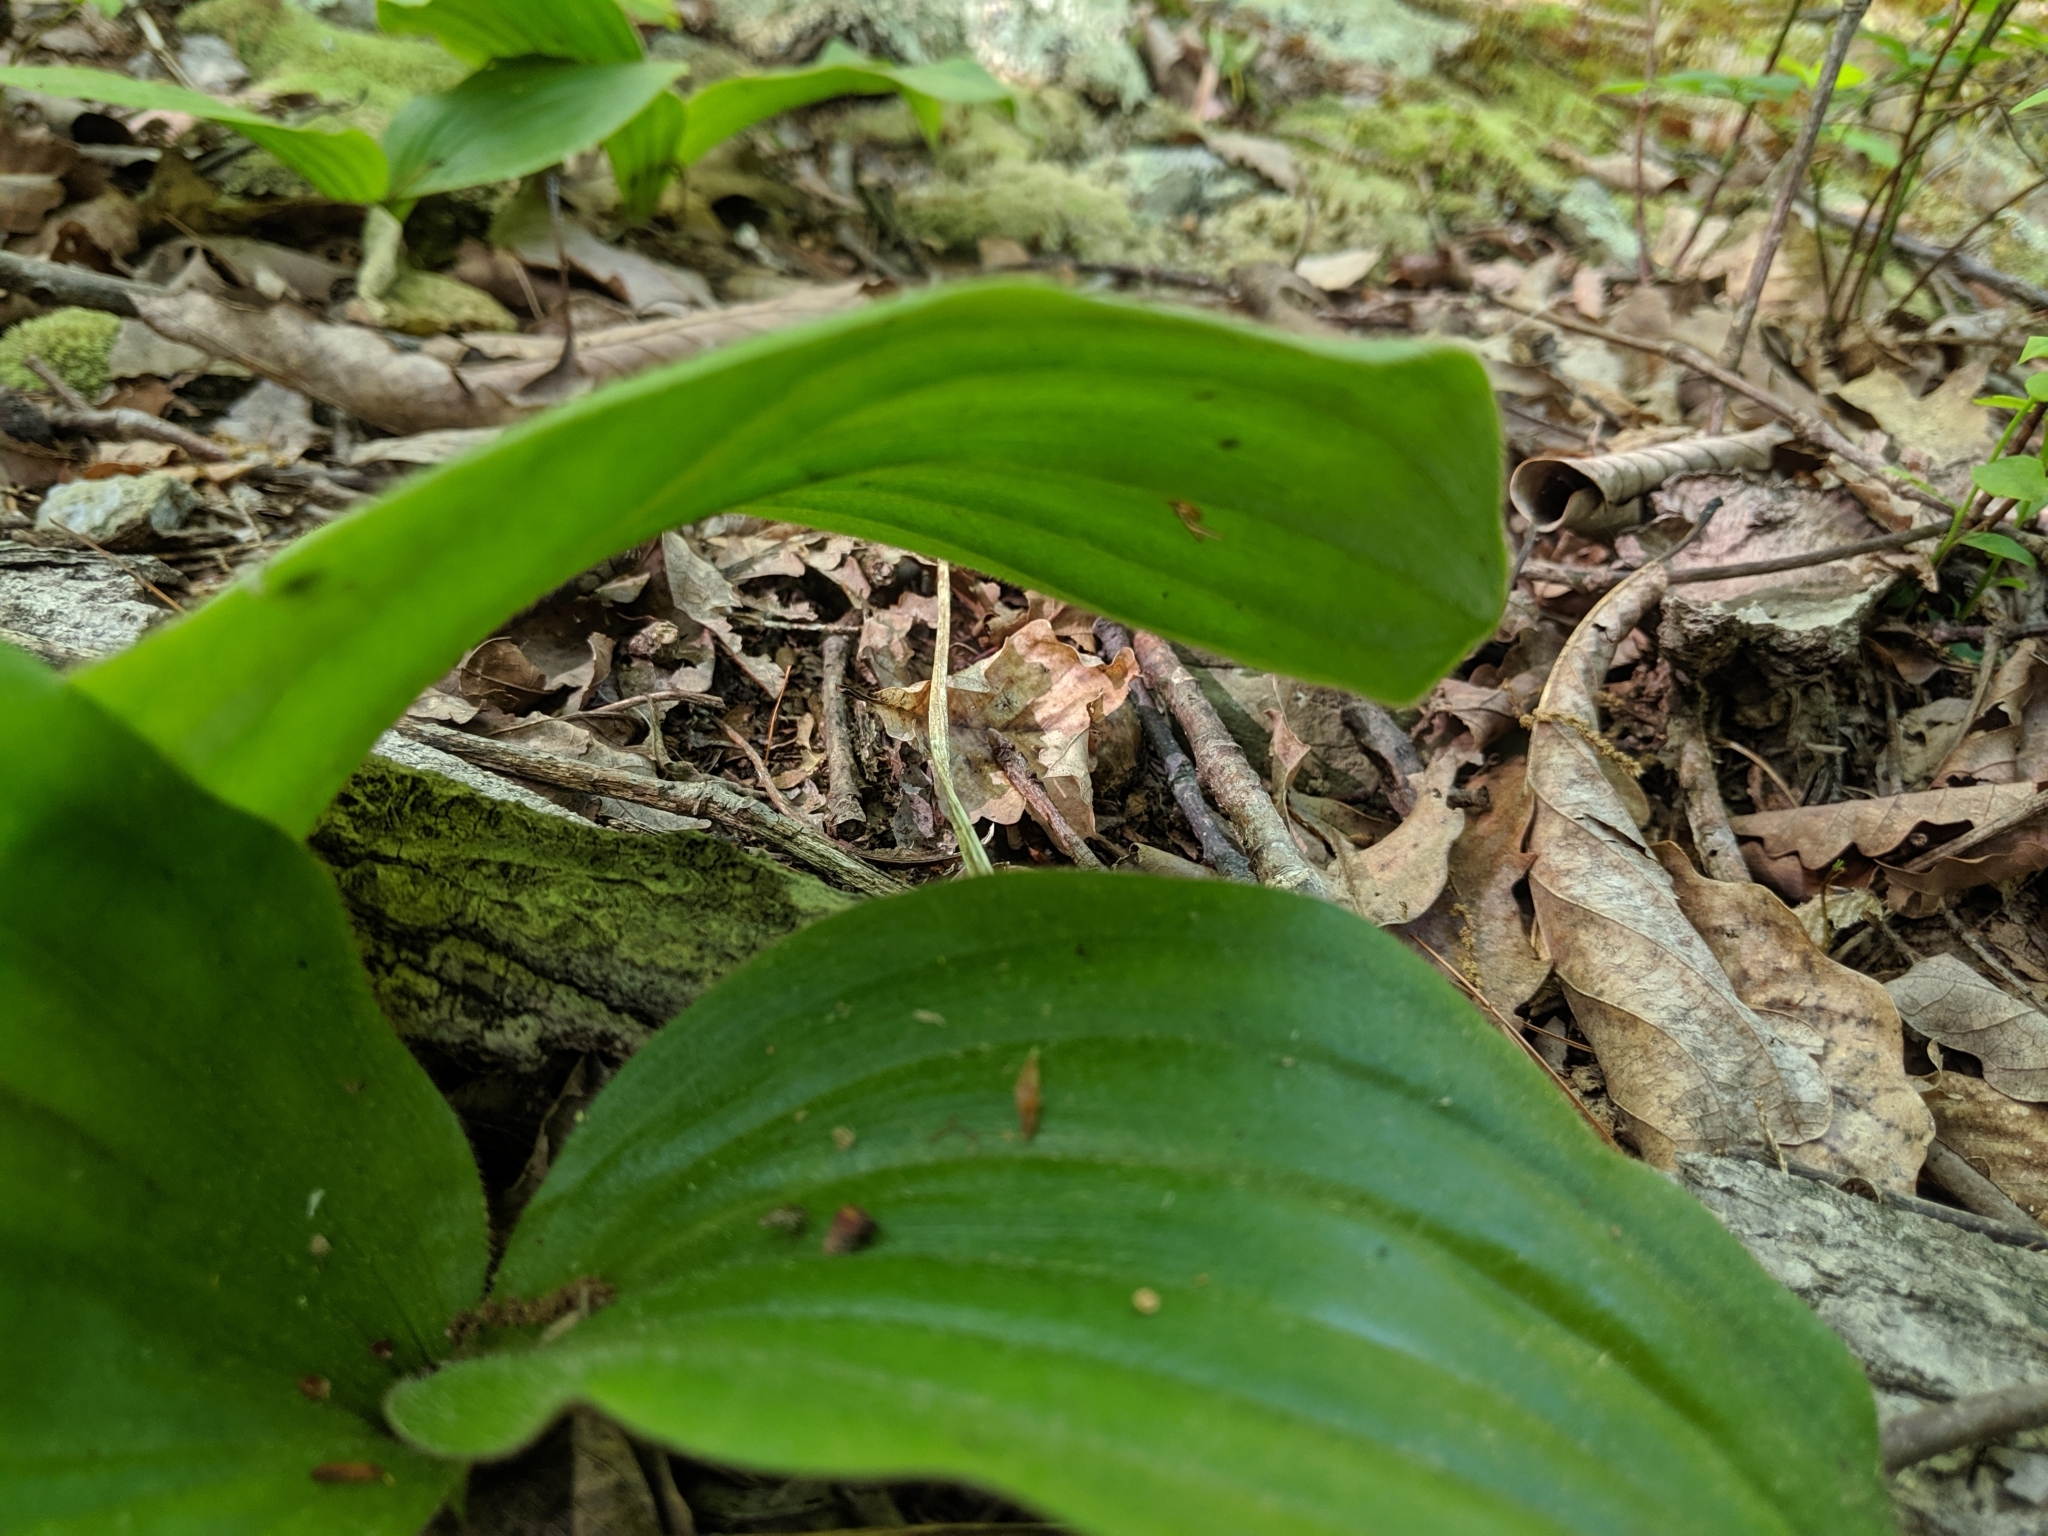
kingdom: Plantae
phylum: Tracheophyta
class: Liliopsida
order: Asparagales
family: Orchidaceae
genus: Cypripedium
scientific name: Cypripedium acaule
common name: Pink lady's-slipper
